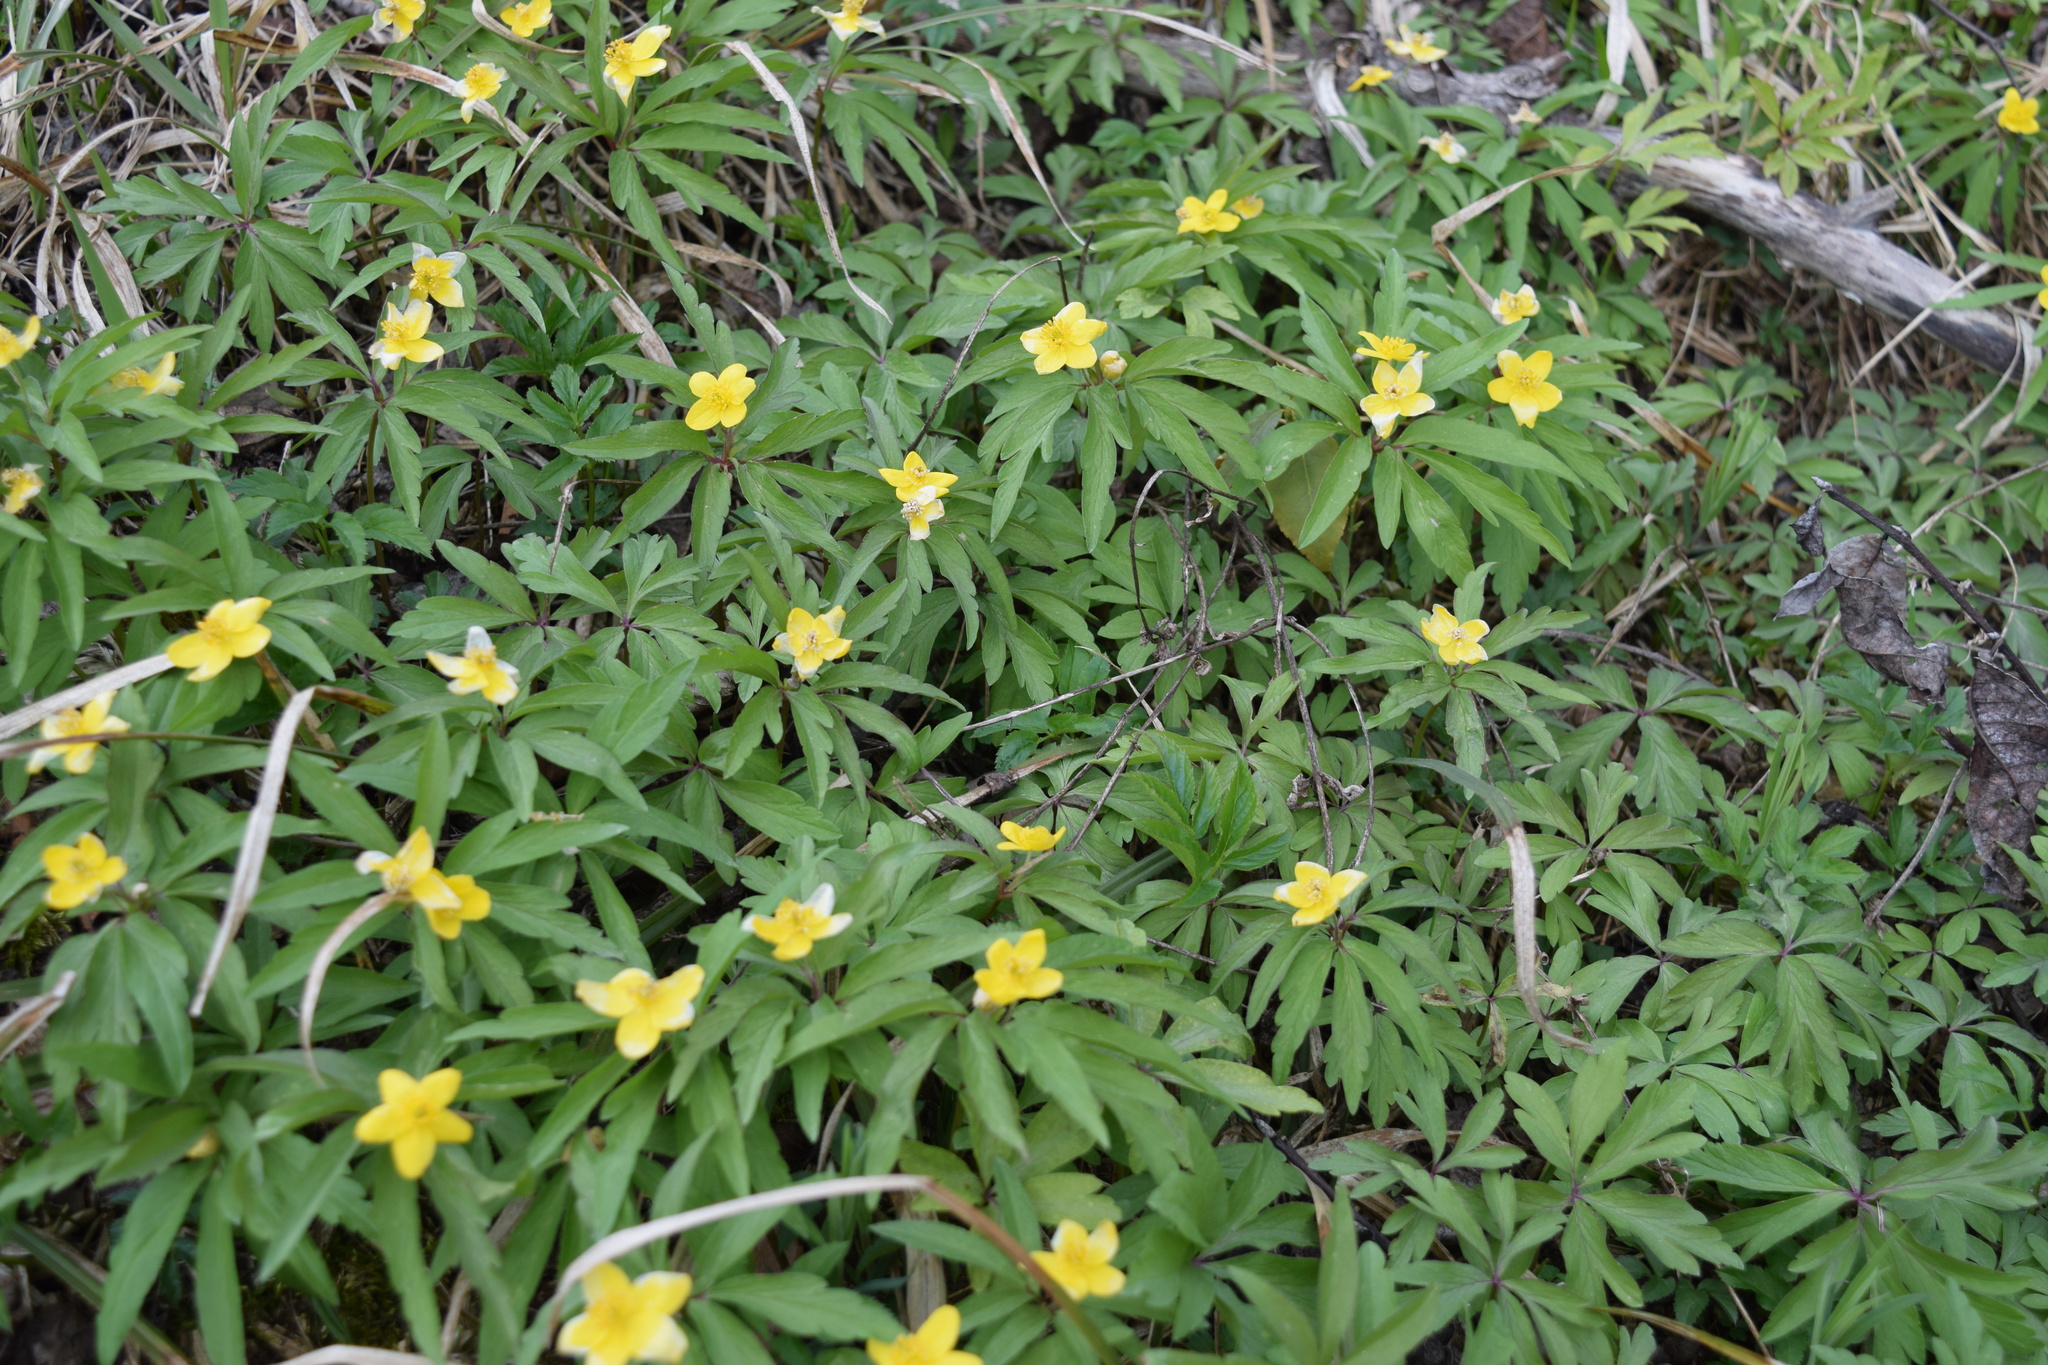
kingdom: Plantae
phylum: Tracheophyta
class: Magnoliopsida
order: Ranunculales
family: Ranunculaceae
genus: Anemone
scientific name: Anemone ranunculoides
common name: Yellow anemone
